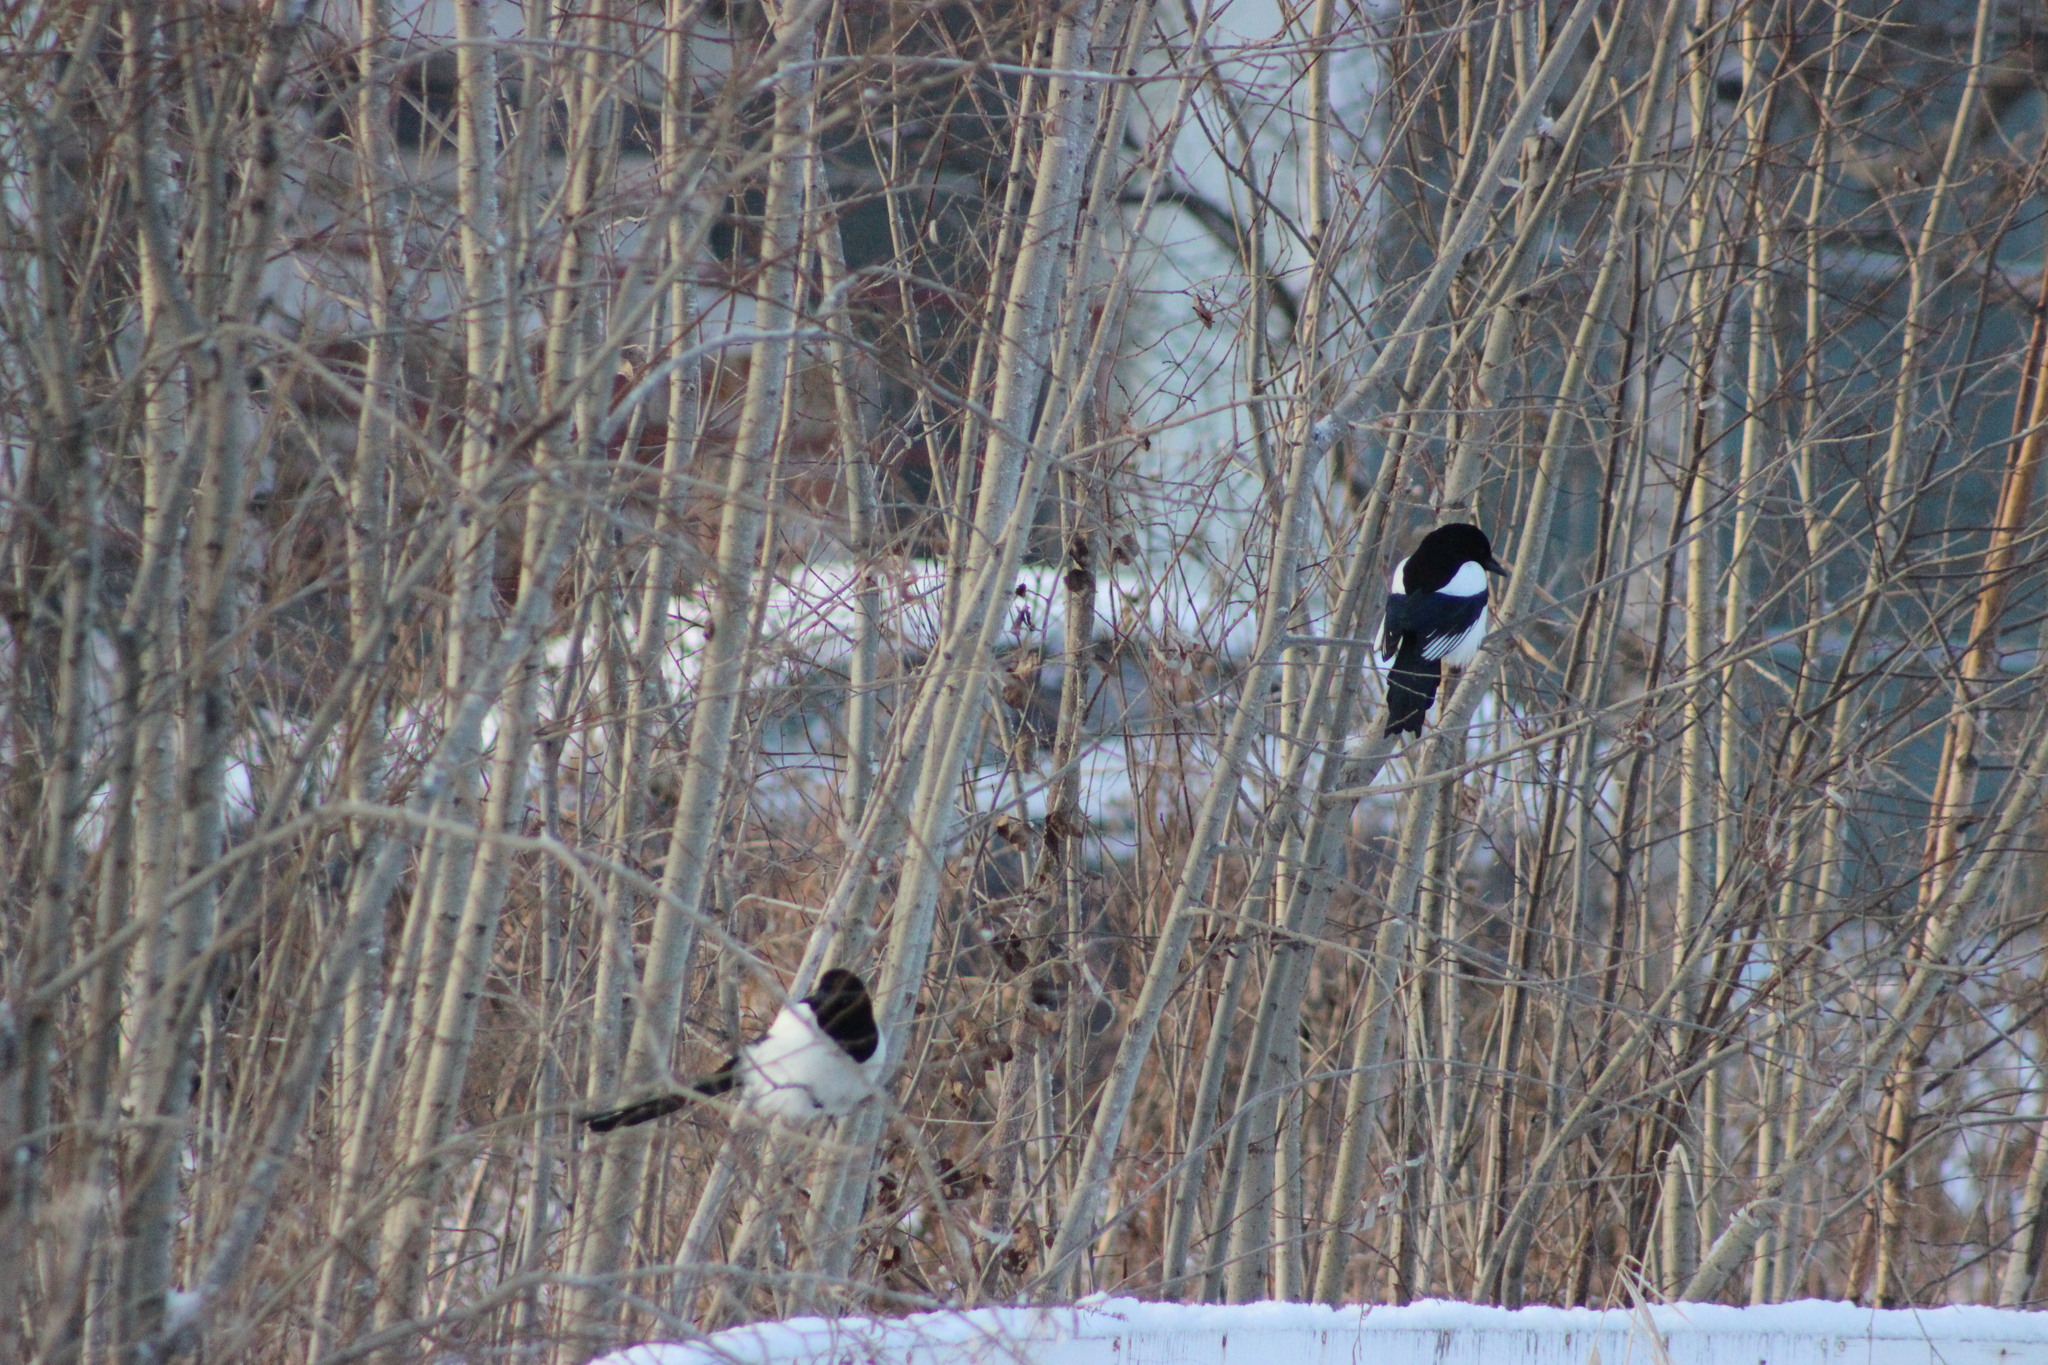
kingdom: Animalia
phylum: Chordata
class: Aves
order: Passeriformes
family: Corvidae
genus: Pica
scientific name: Pica pica
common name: Eurasian magpie
